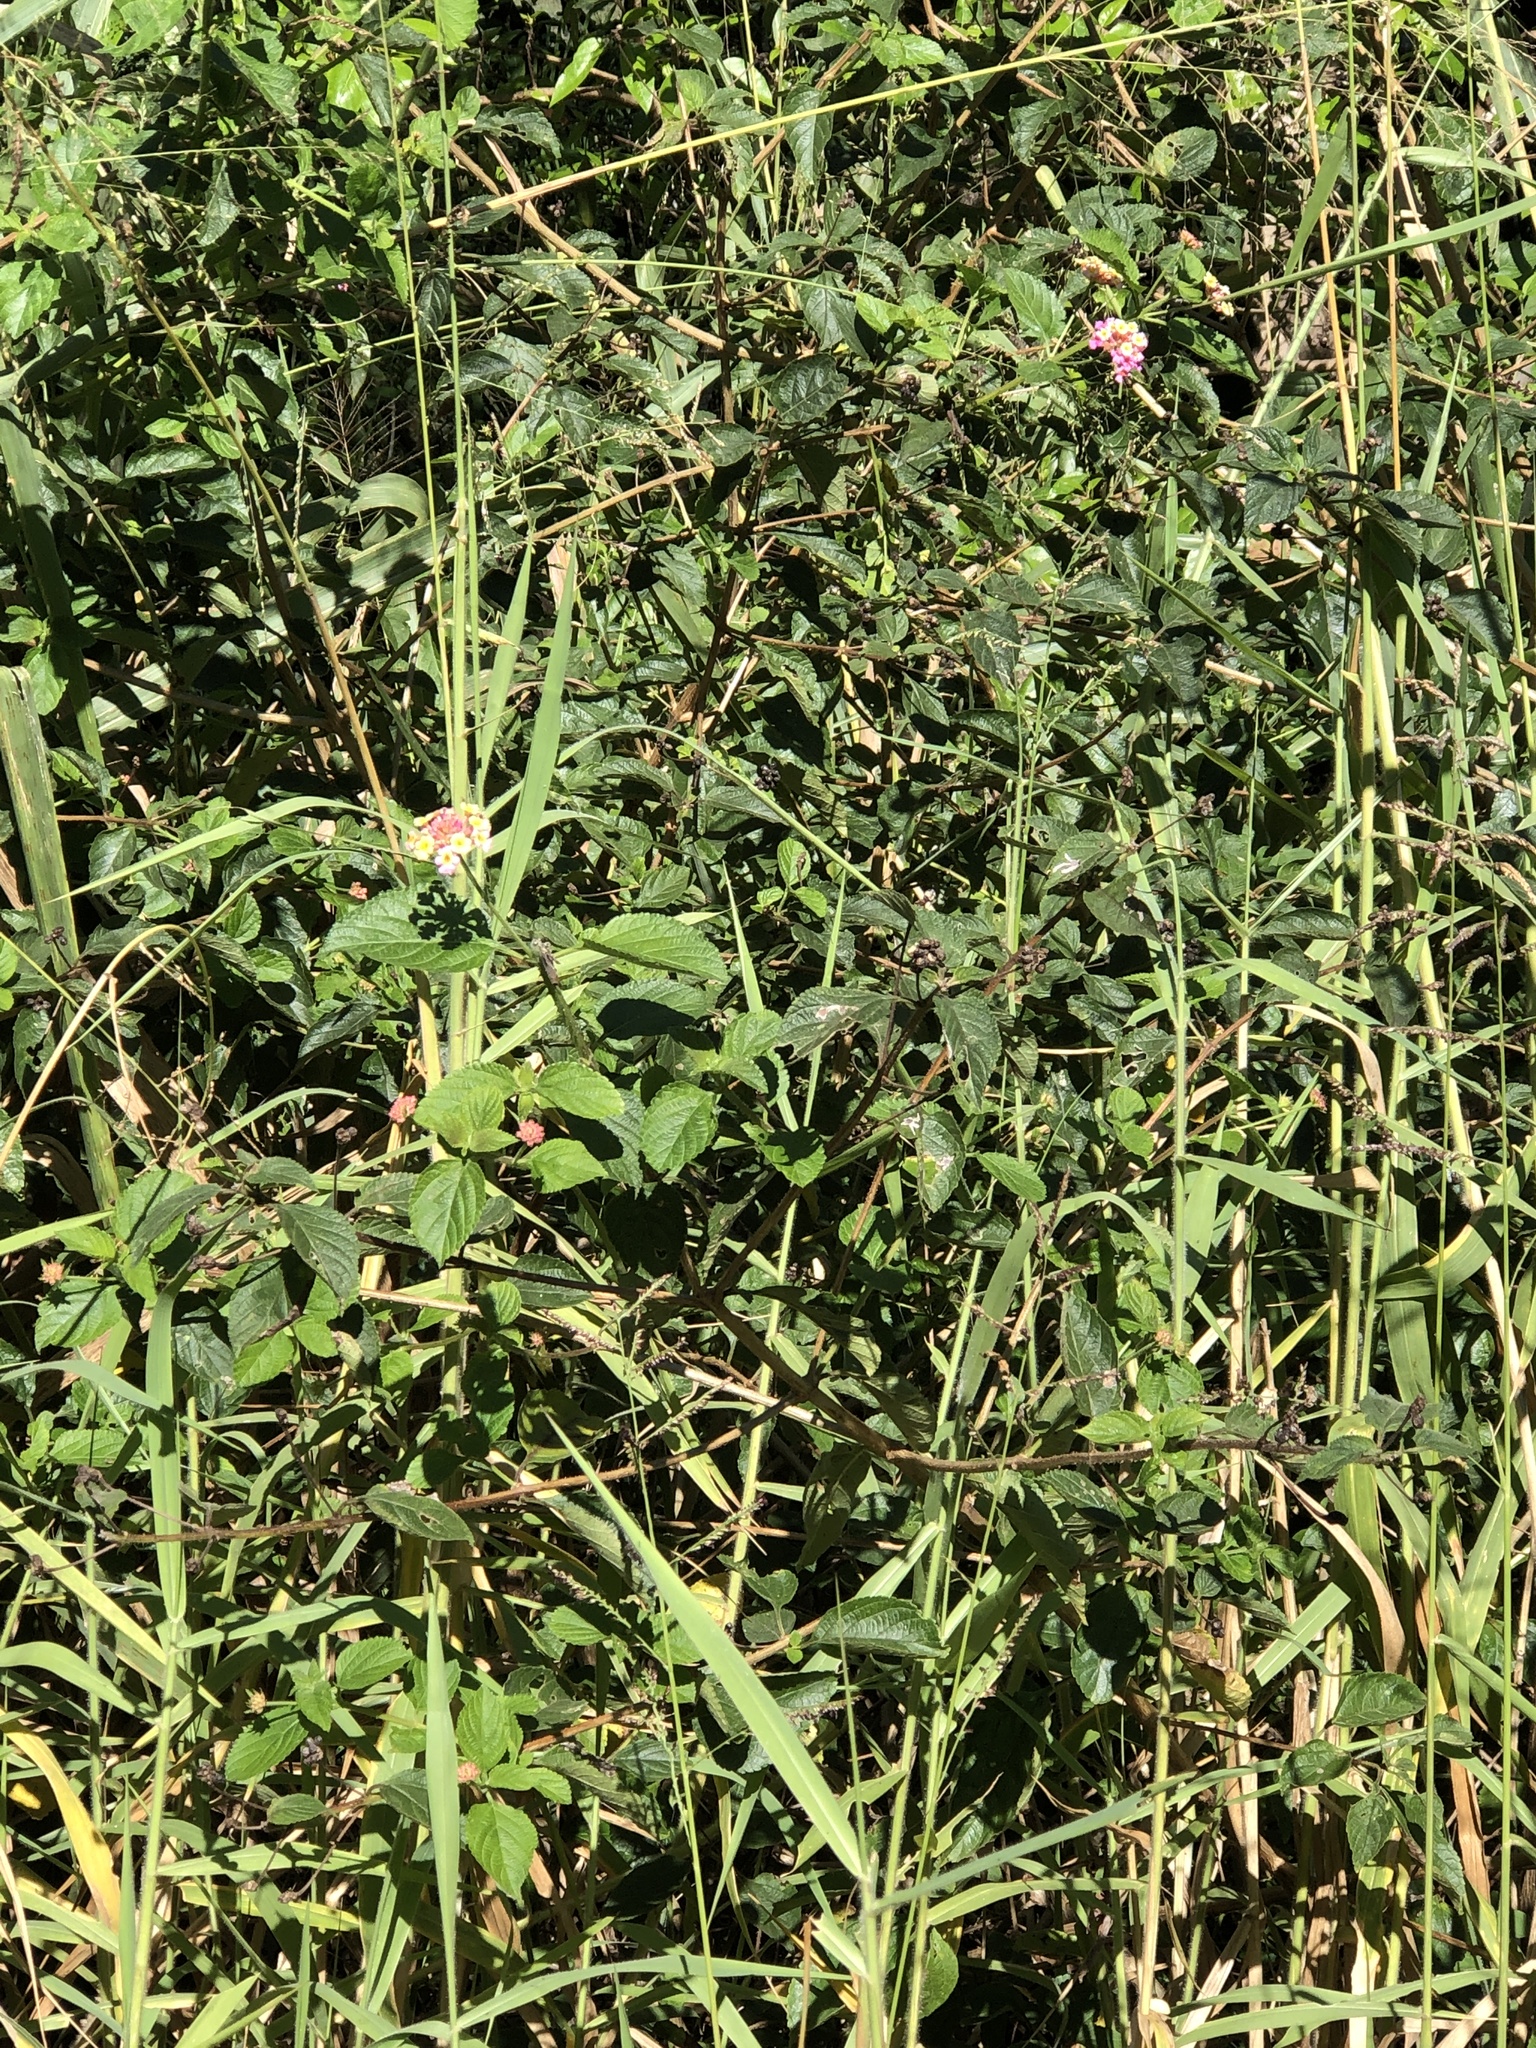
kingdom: Plantae
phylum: Tracheophyta
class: Magnoliopsida
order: Lamiales
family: Verbenaceae
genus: Lantana
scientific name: Lantana camara
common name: Lantana
